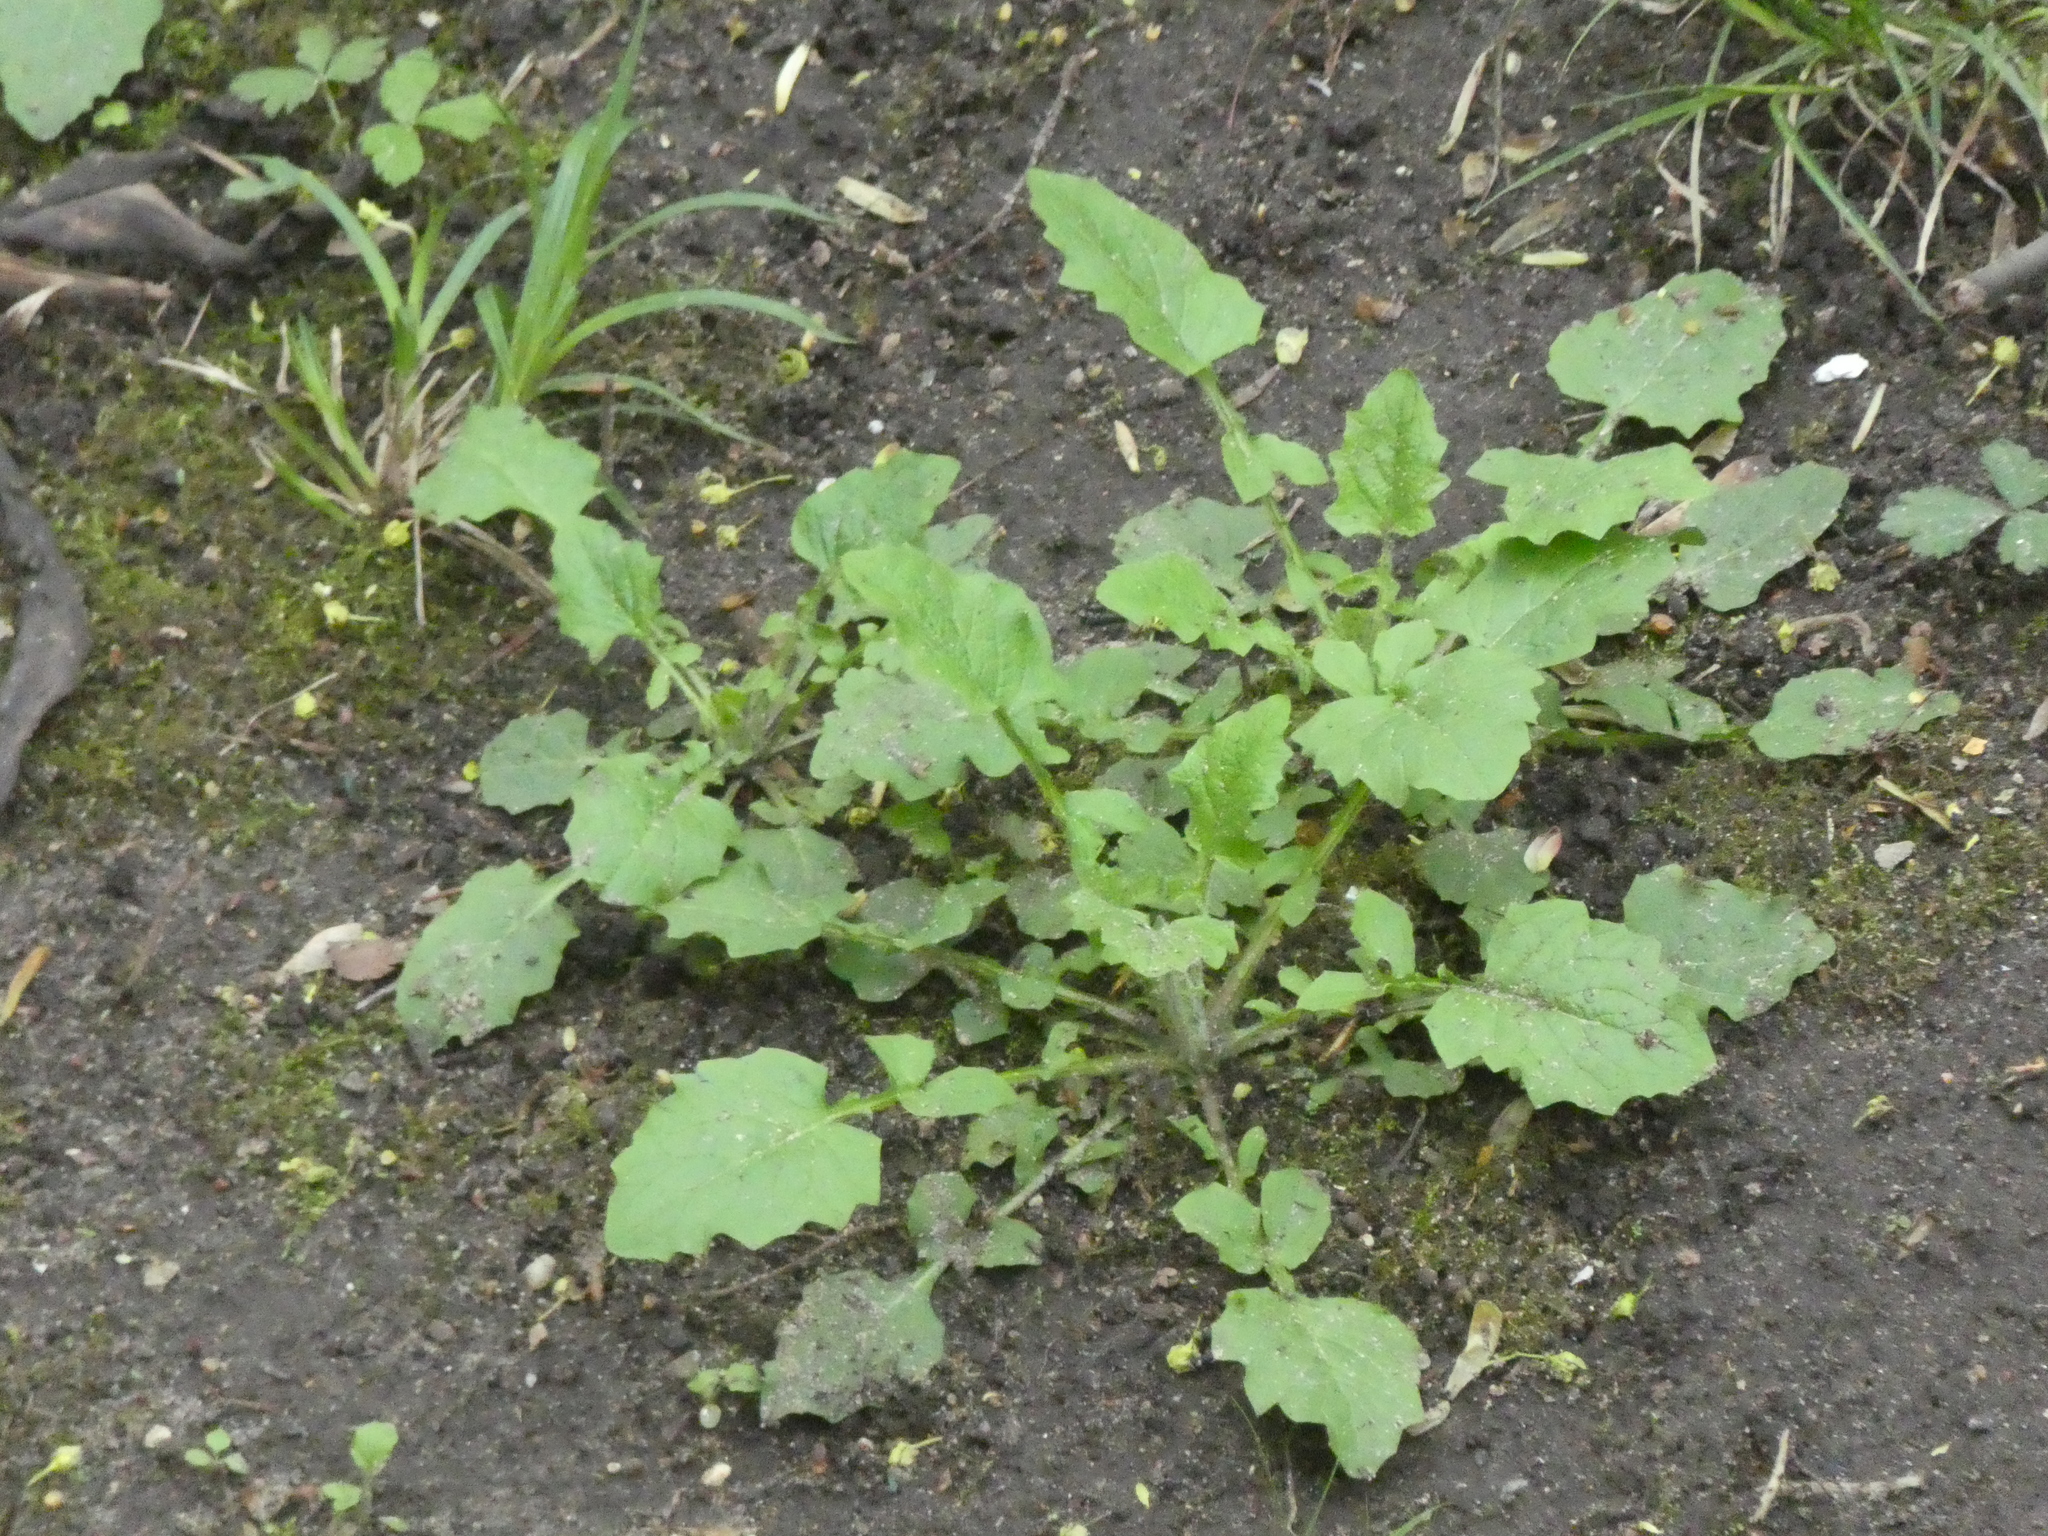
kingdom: Plantae
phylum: Tracheophyta
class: Magnoliopsida
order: Asterales
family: Asteraceae
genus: Lapsana
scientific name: Lapsana communis
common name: Nipplewort
